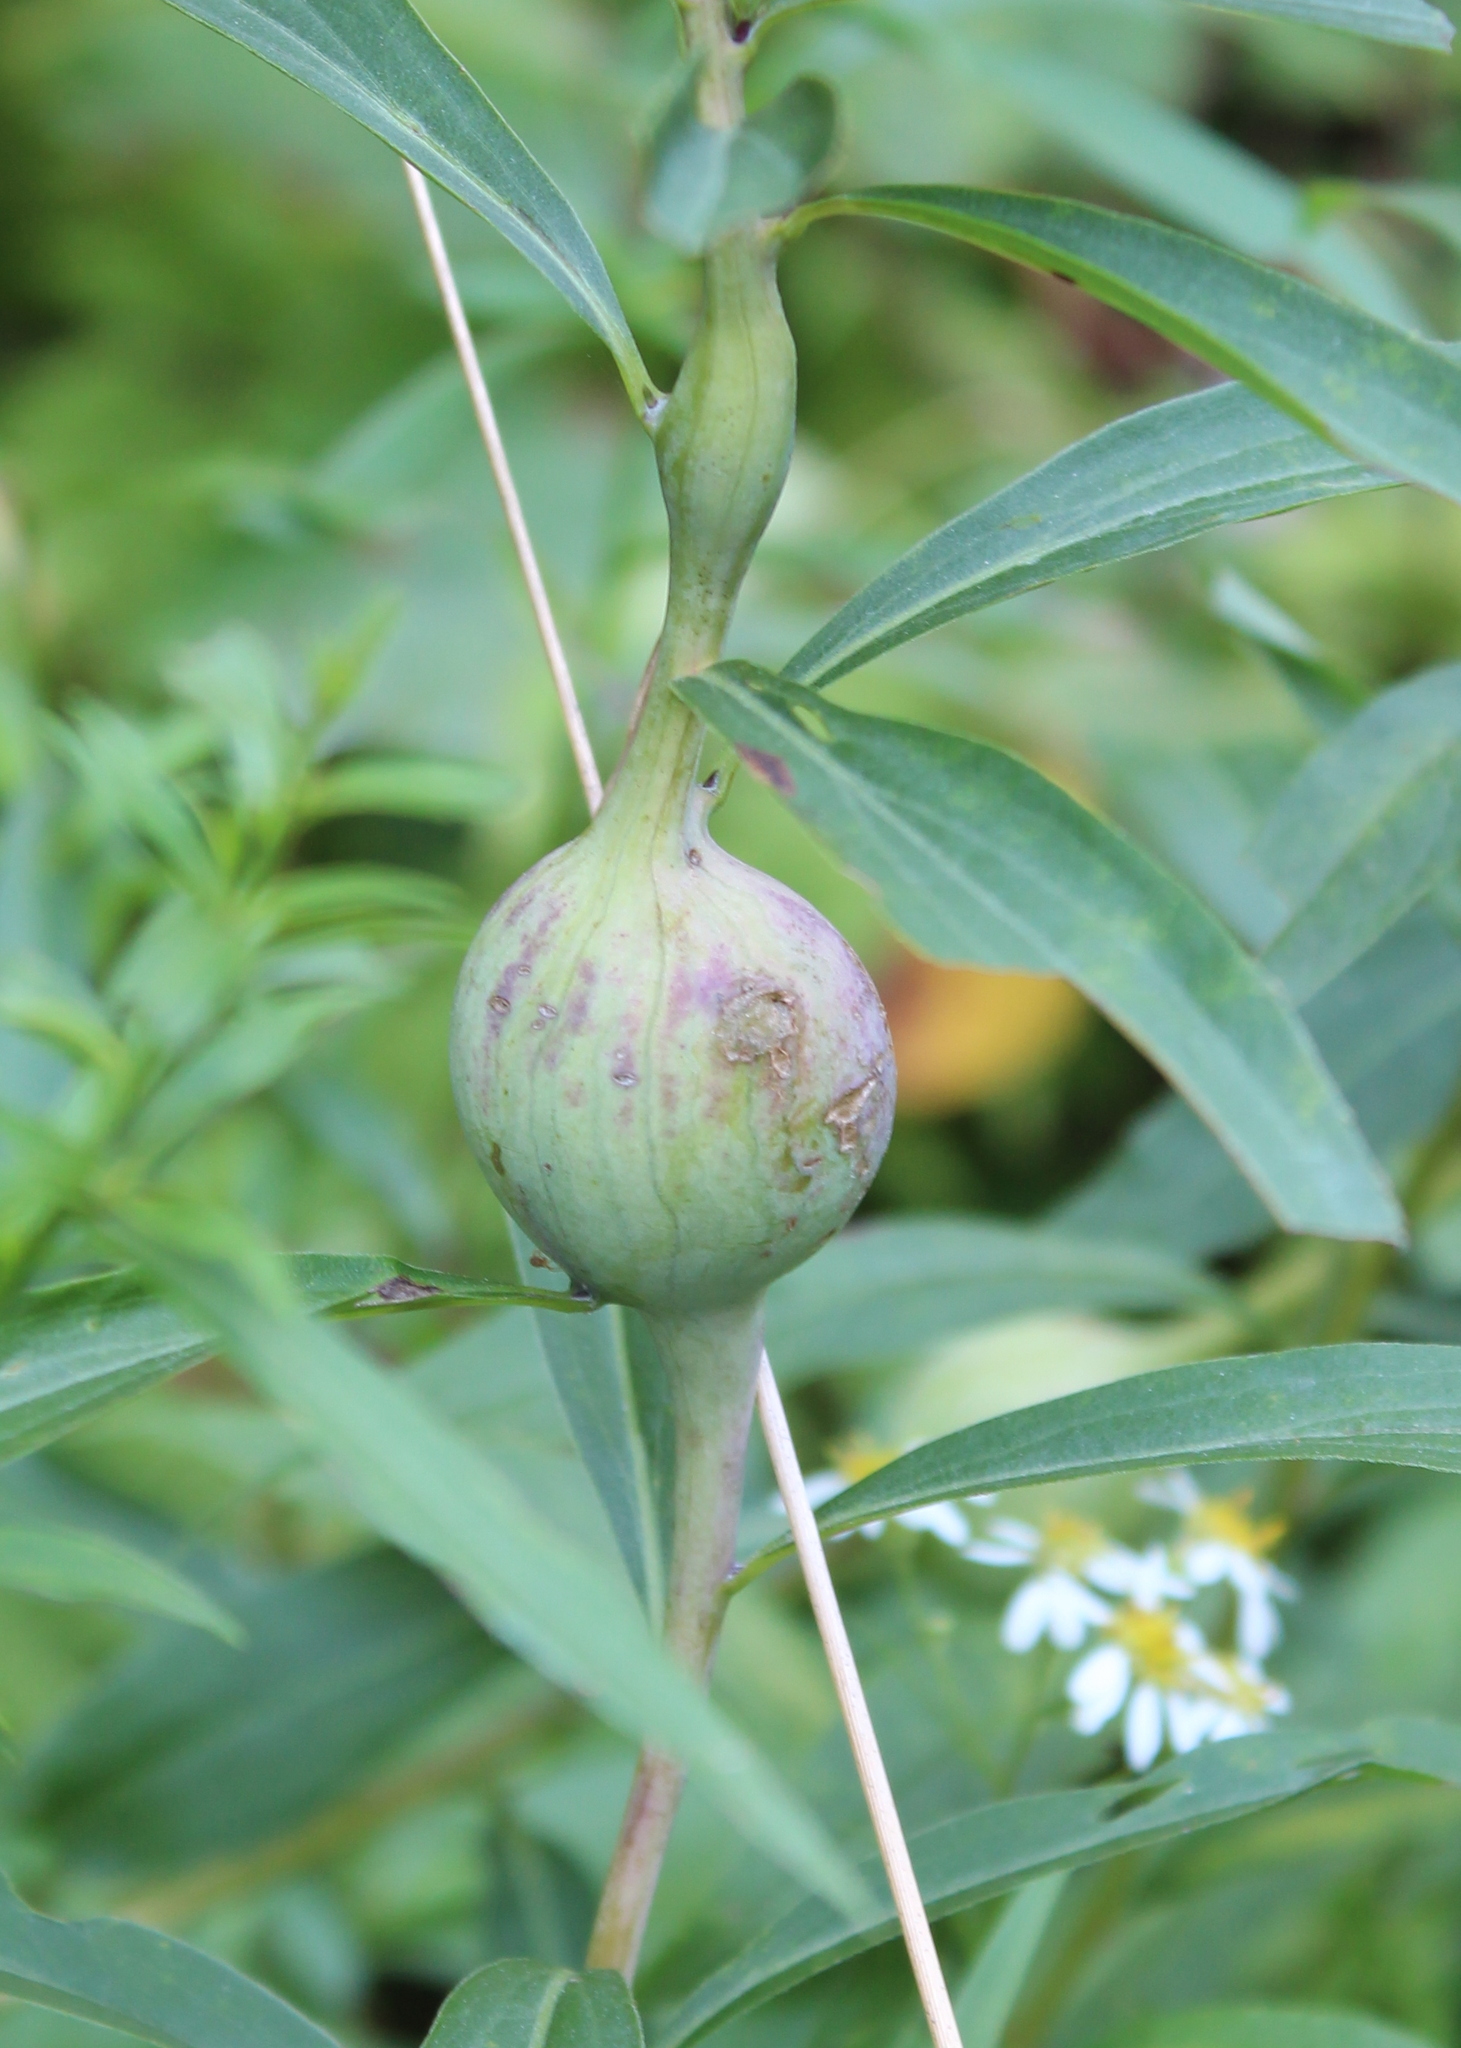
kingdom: Animalia
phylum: Arthropoda
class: Insecta
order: Diptera
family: Tephritidae
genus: Eurosta
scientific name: Eurosta solidaginis
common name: Goldenrod gall fly
